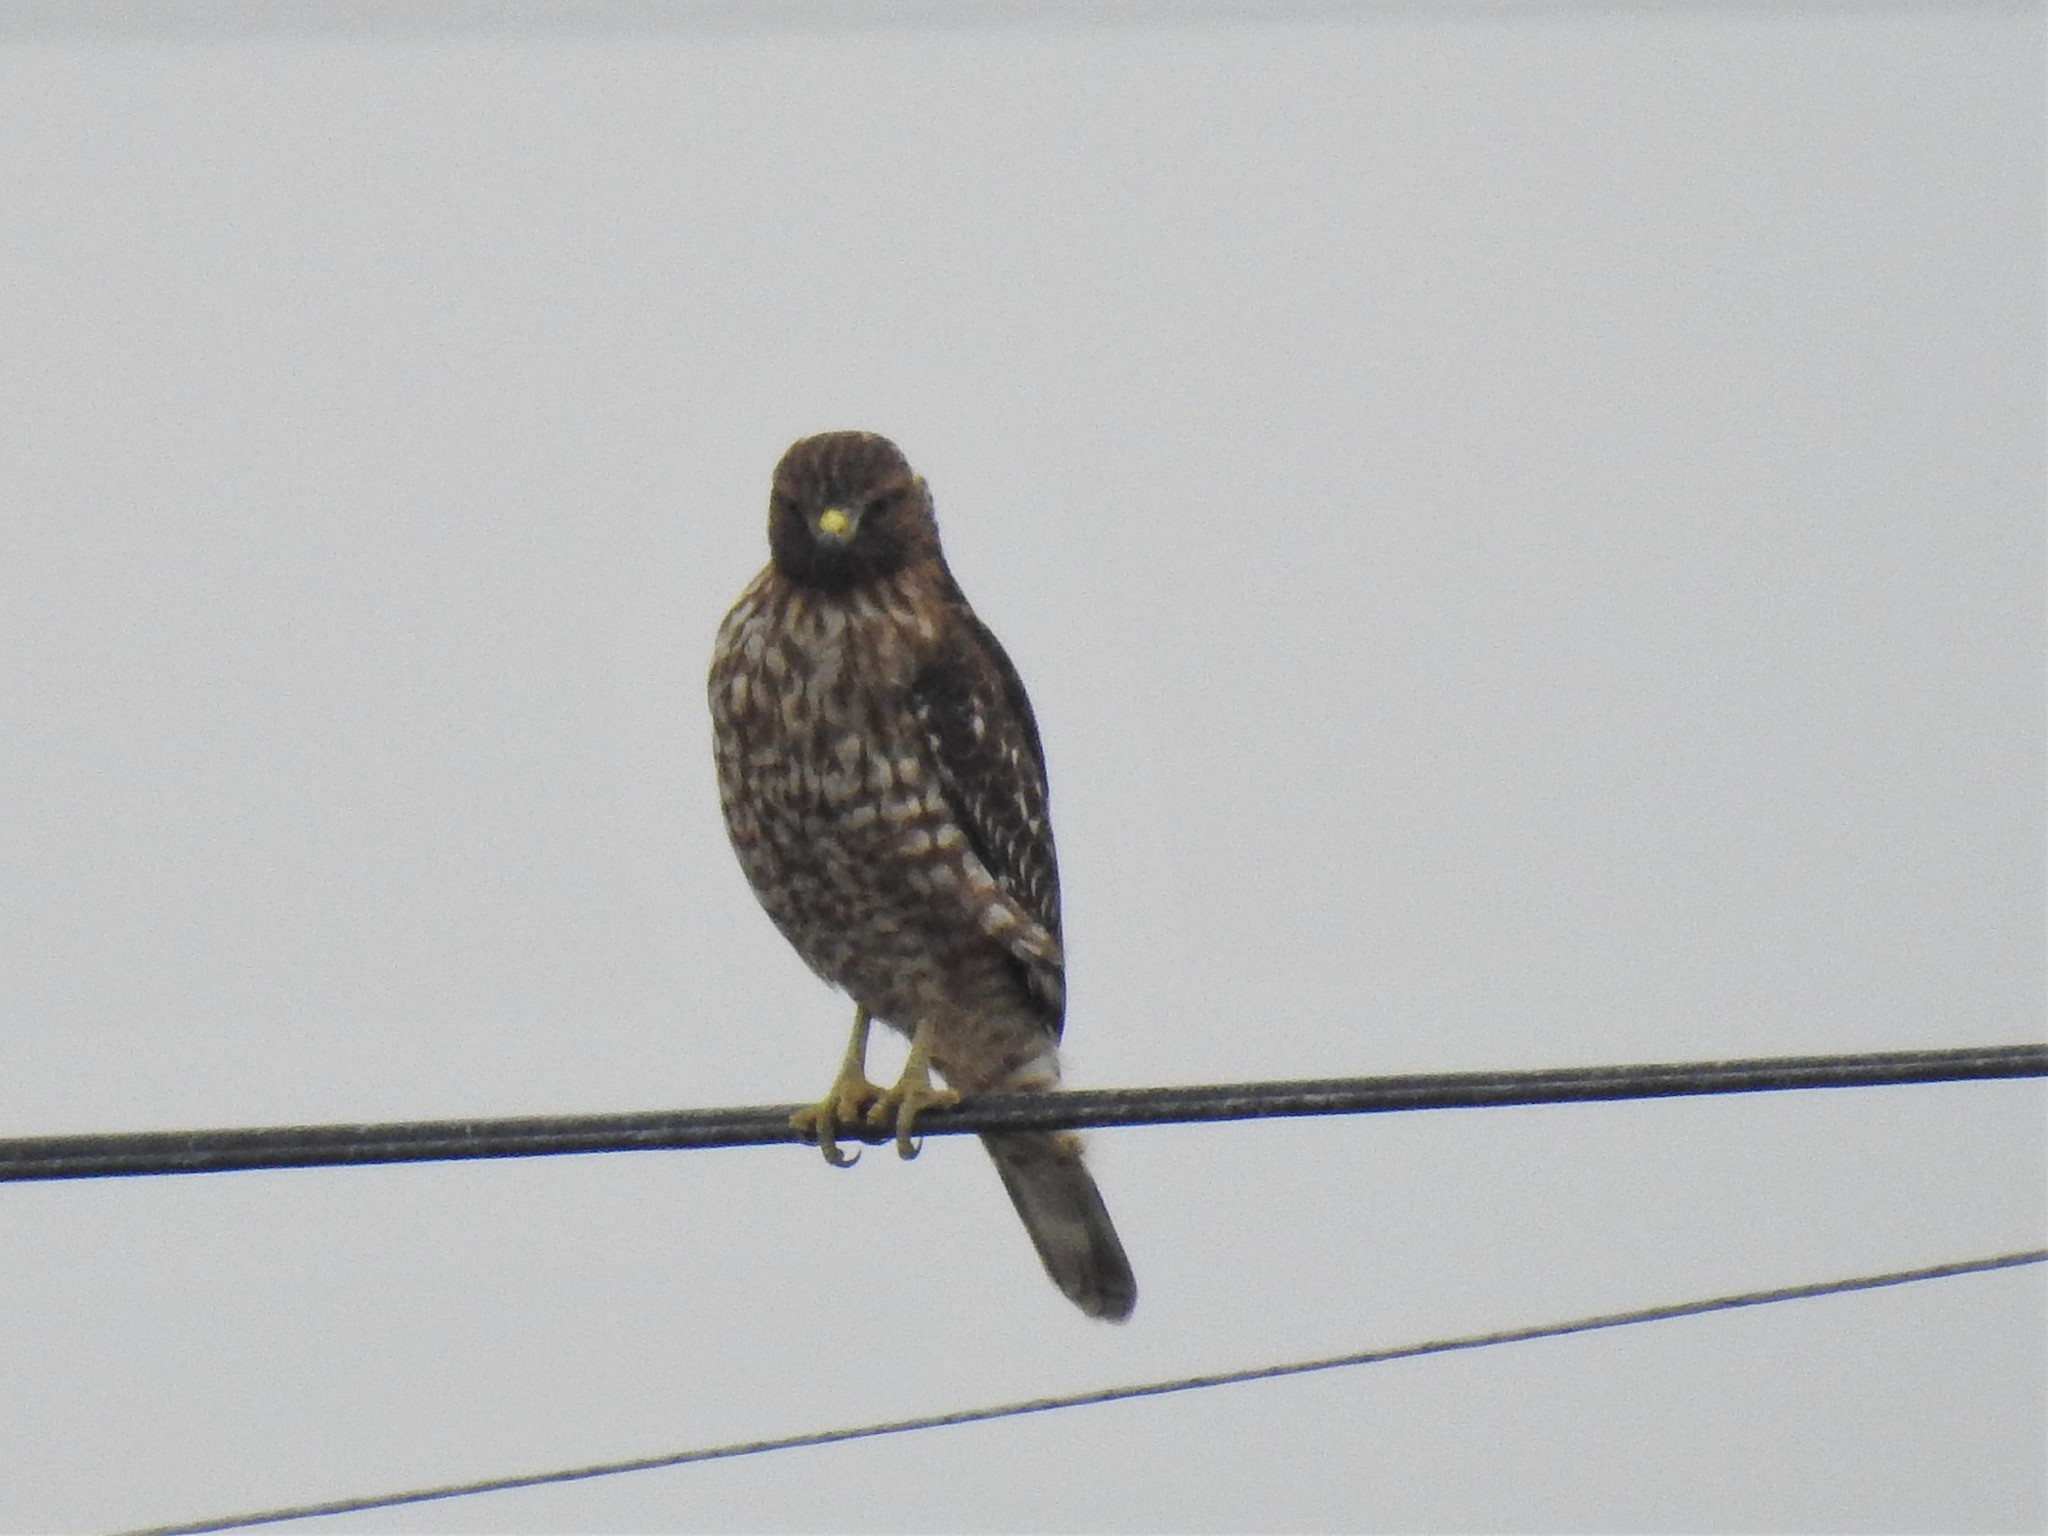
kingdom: Animalia
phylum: Chordata
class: Aves
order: Accipitriformes
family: Accipitridae
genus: Buteo
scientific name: Buteo lineatus
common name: Red-shouldered hawk
